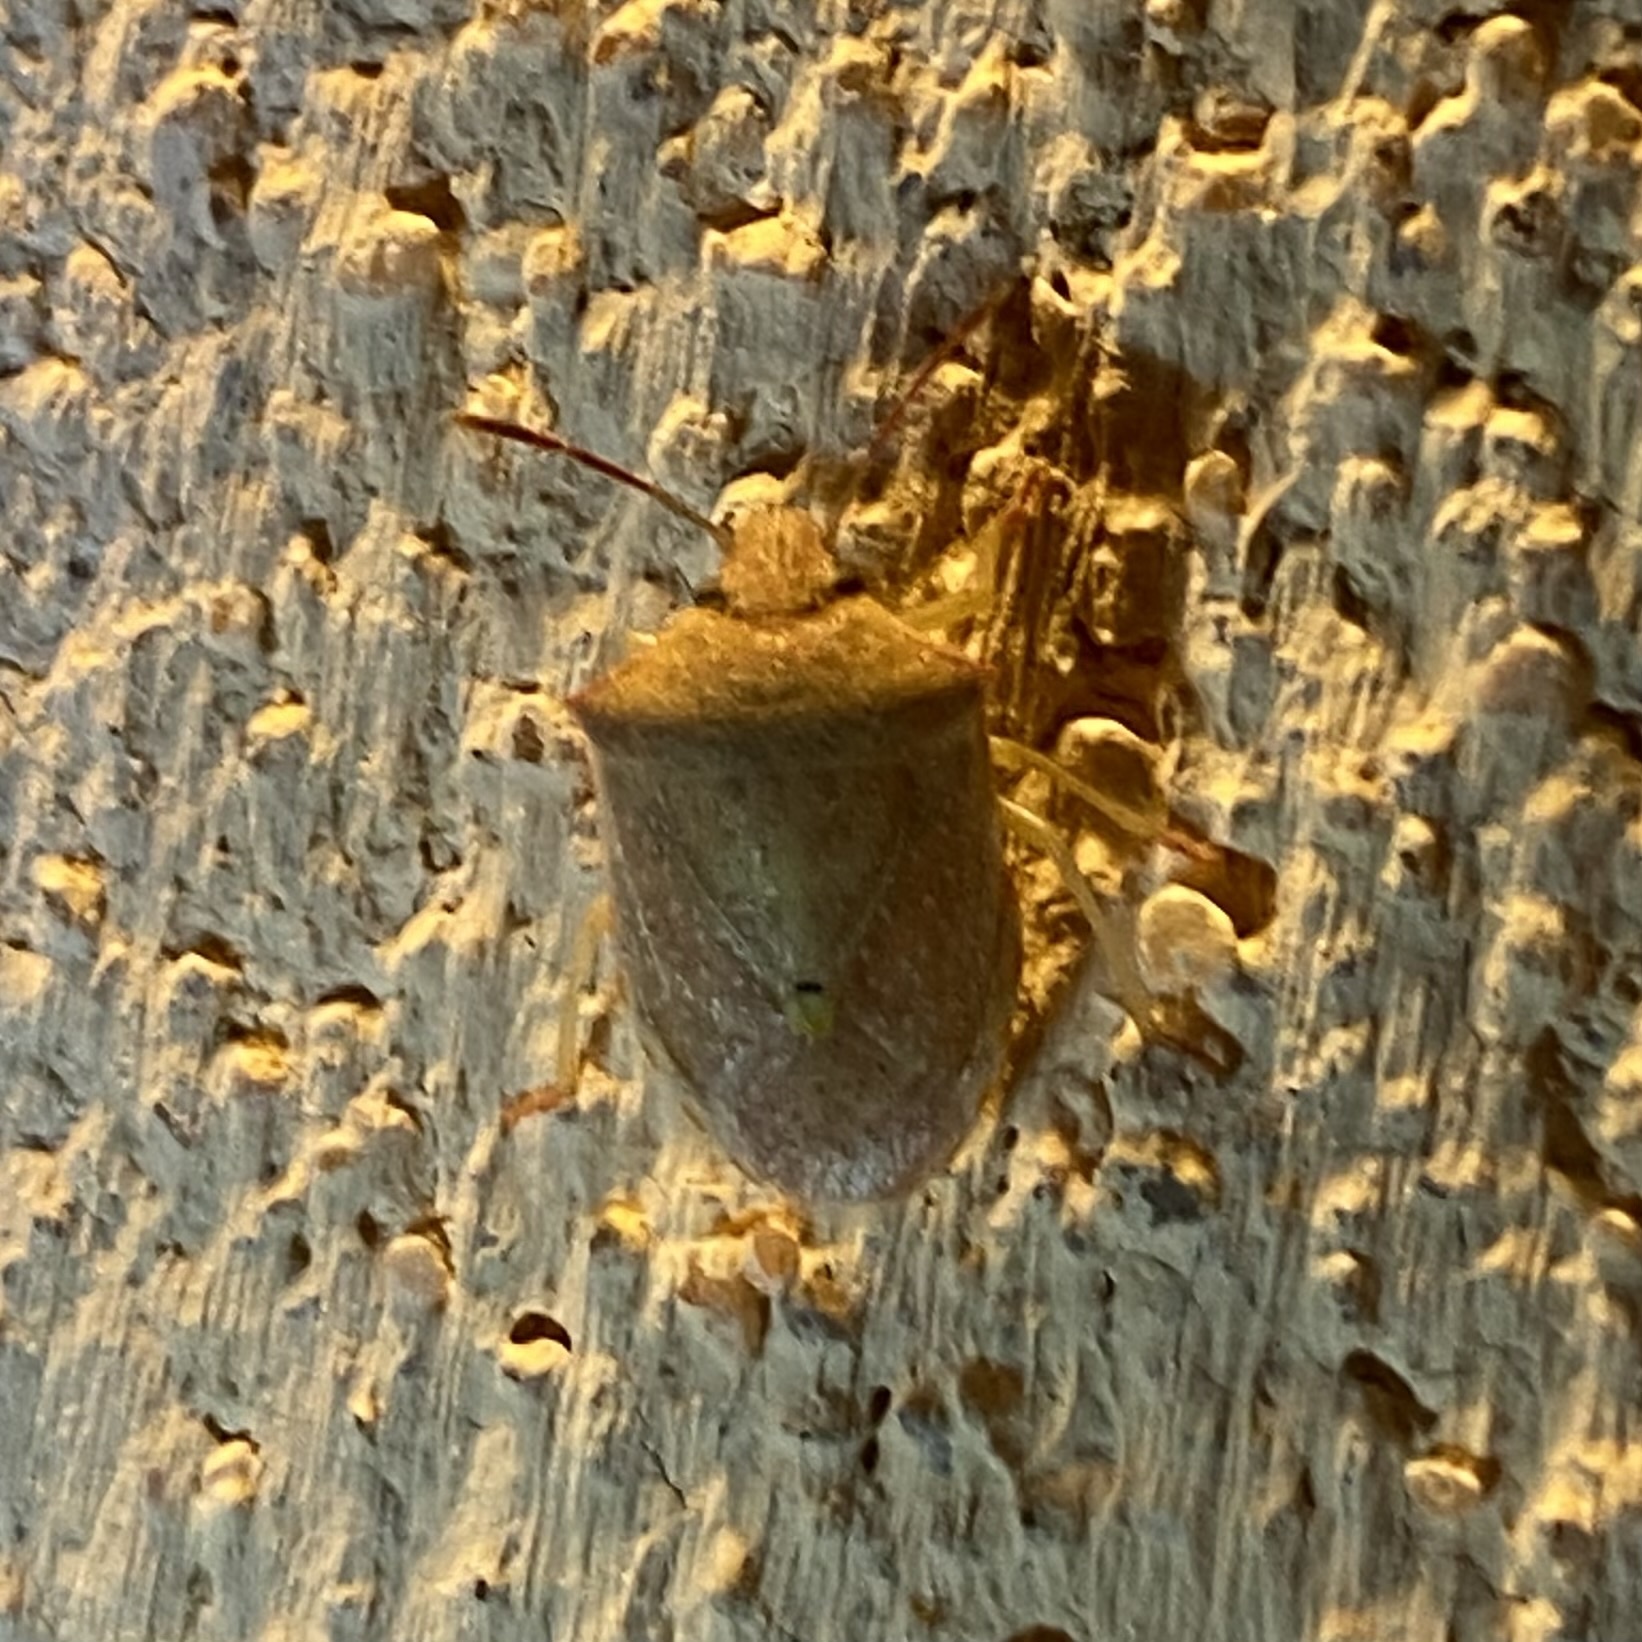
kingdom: Animalia
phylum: Arthropoda
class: Insecta
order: Hemiptera
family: Pentatomidae
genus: Thyanta
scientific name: Thyanta accerra
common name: Stink bug
